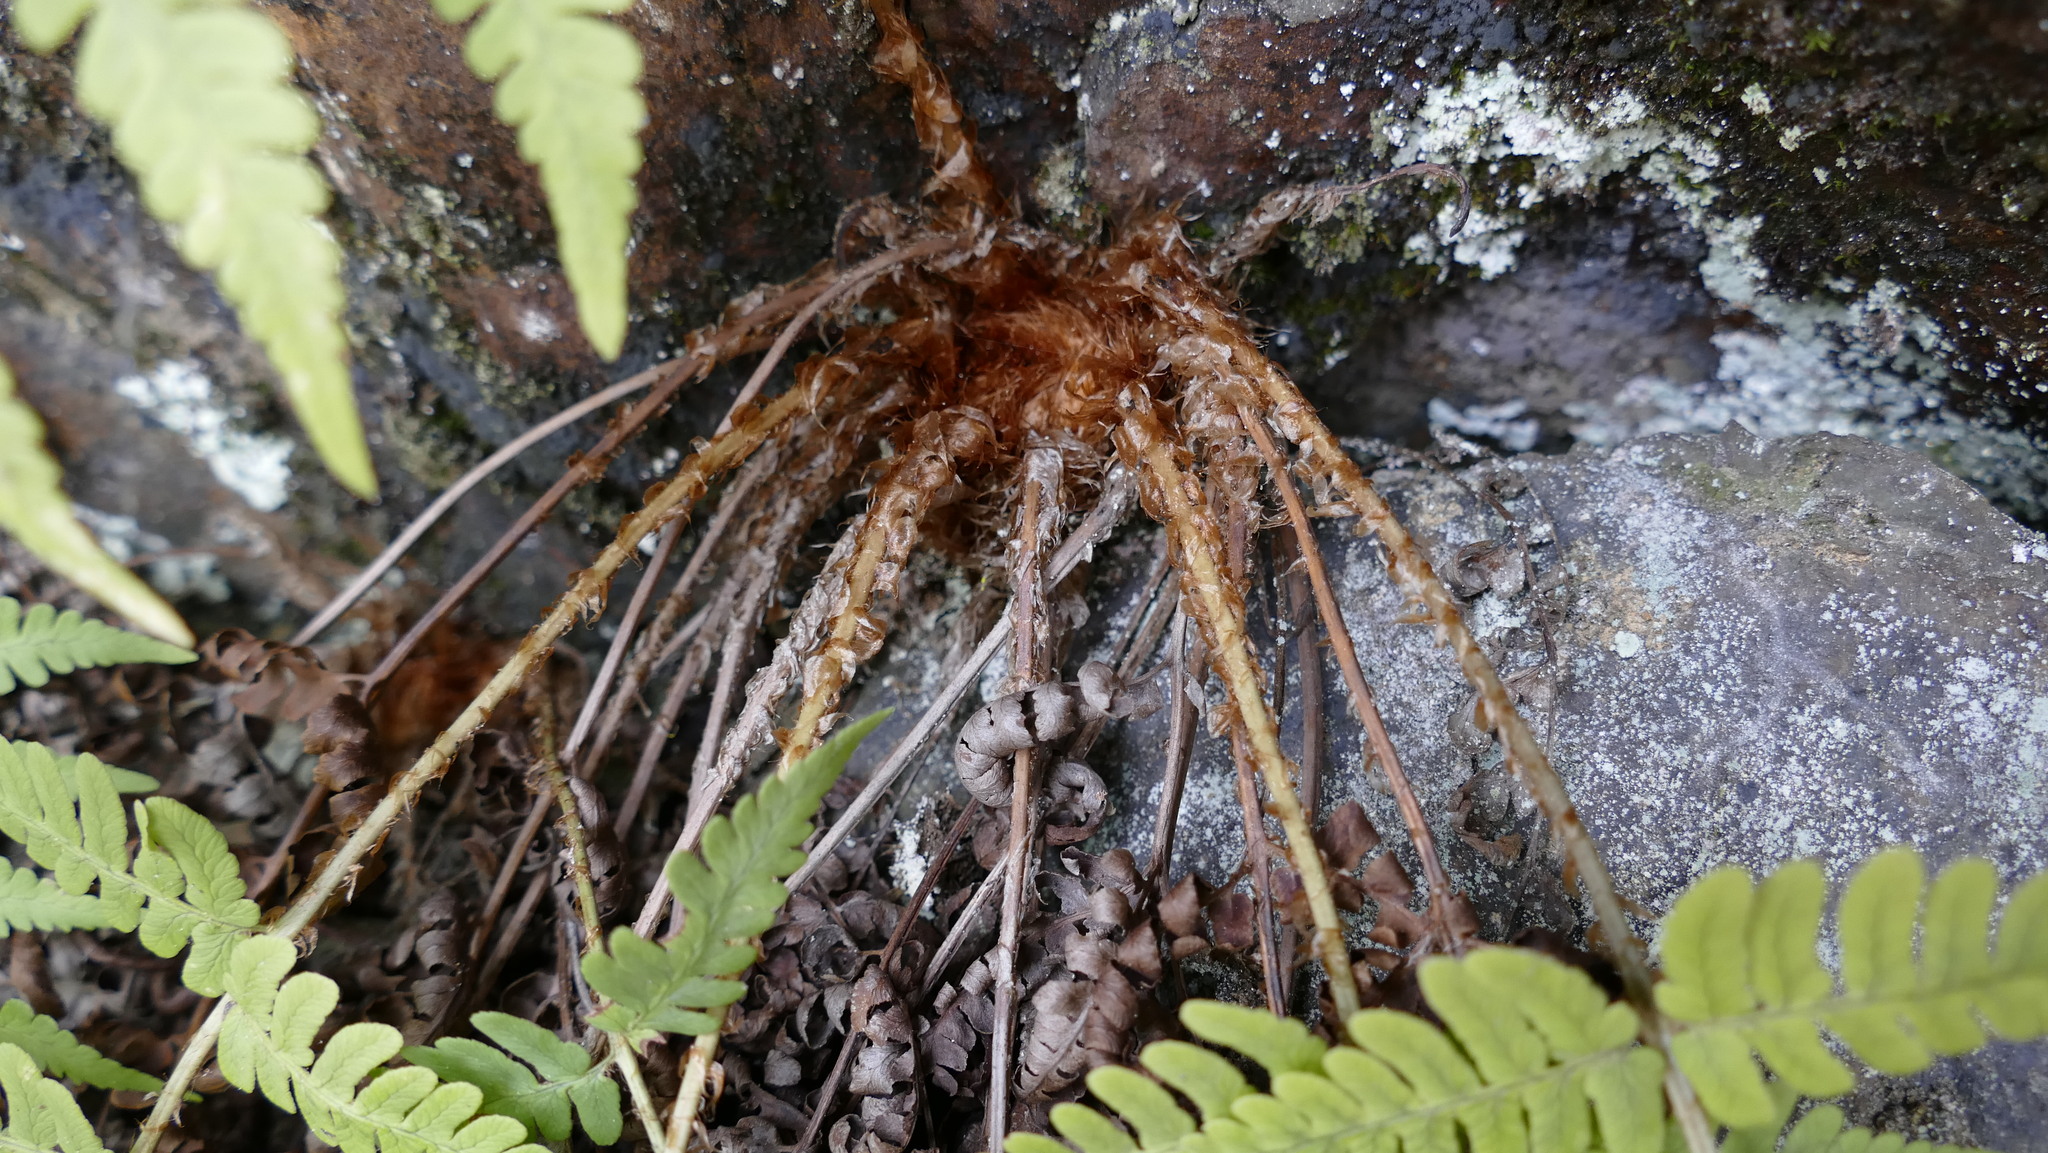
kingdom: Plantae
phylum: Tracheophyta
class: Polypodiopsida
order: Polypodiales
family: Dryopteridaceae
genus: Dryopteris
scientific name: Dryopteris marginalis
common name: Marginal wood fern
